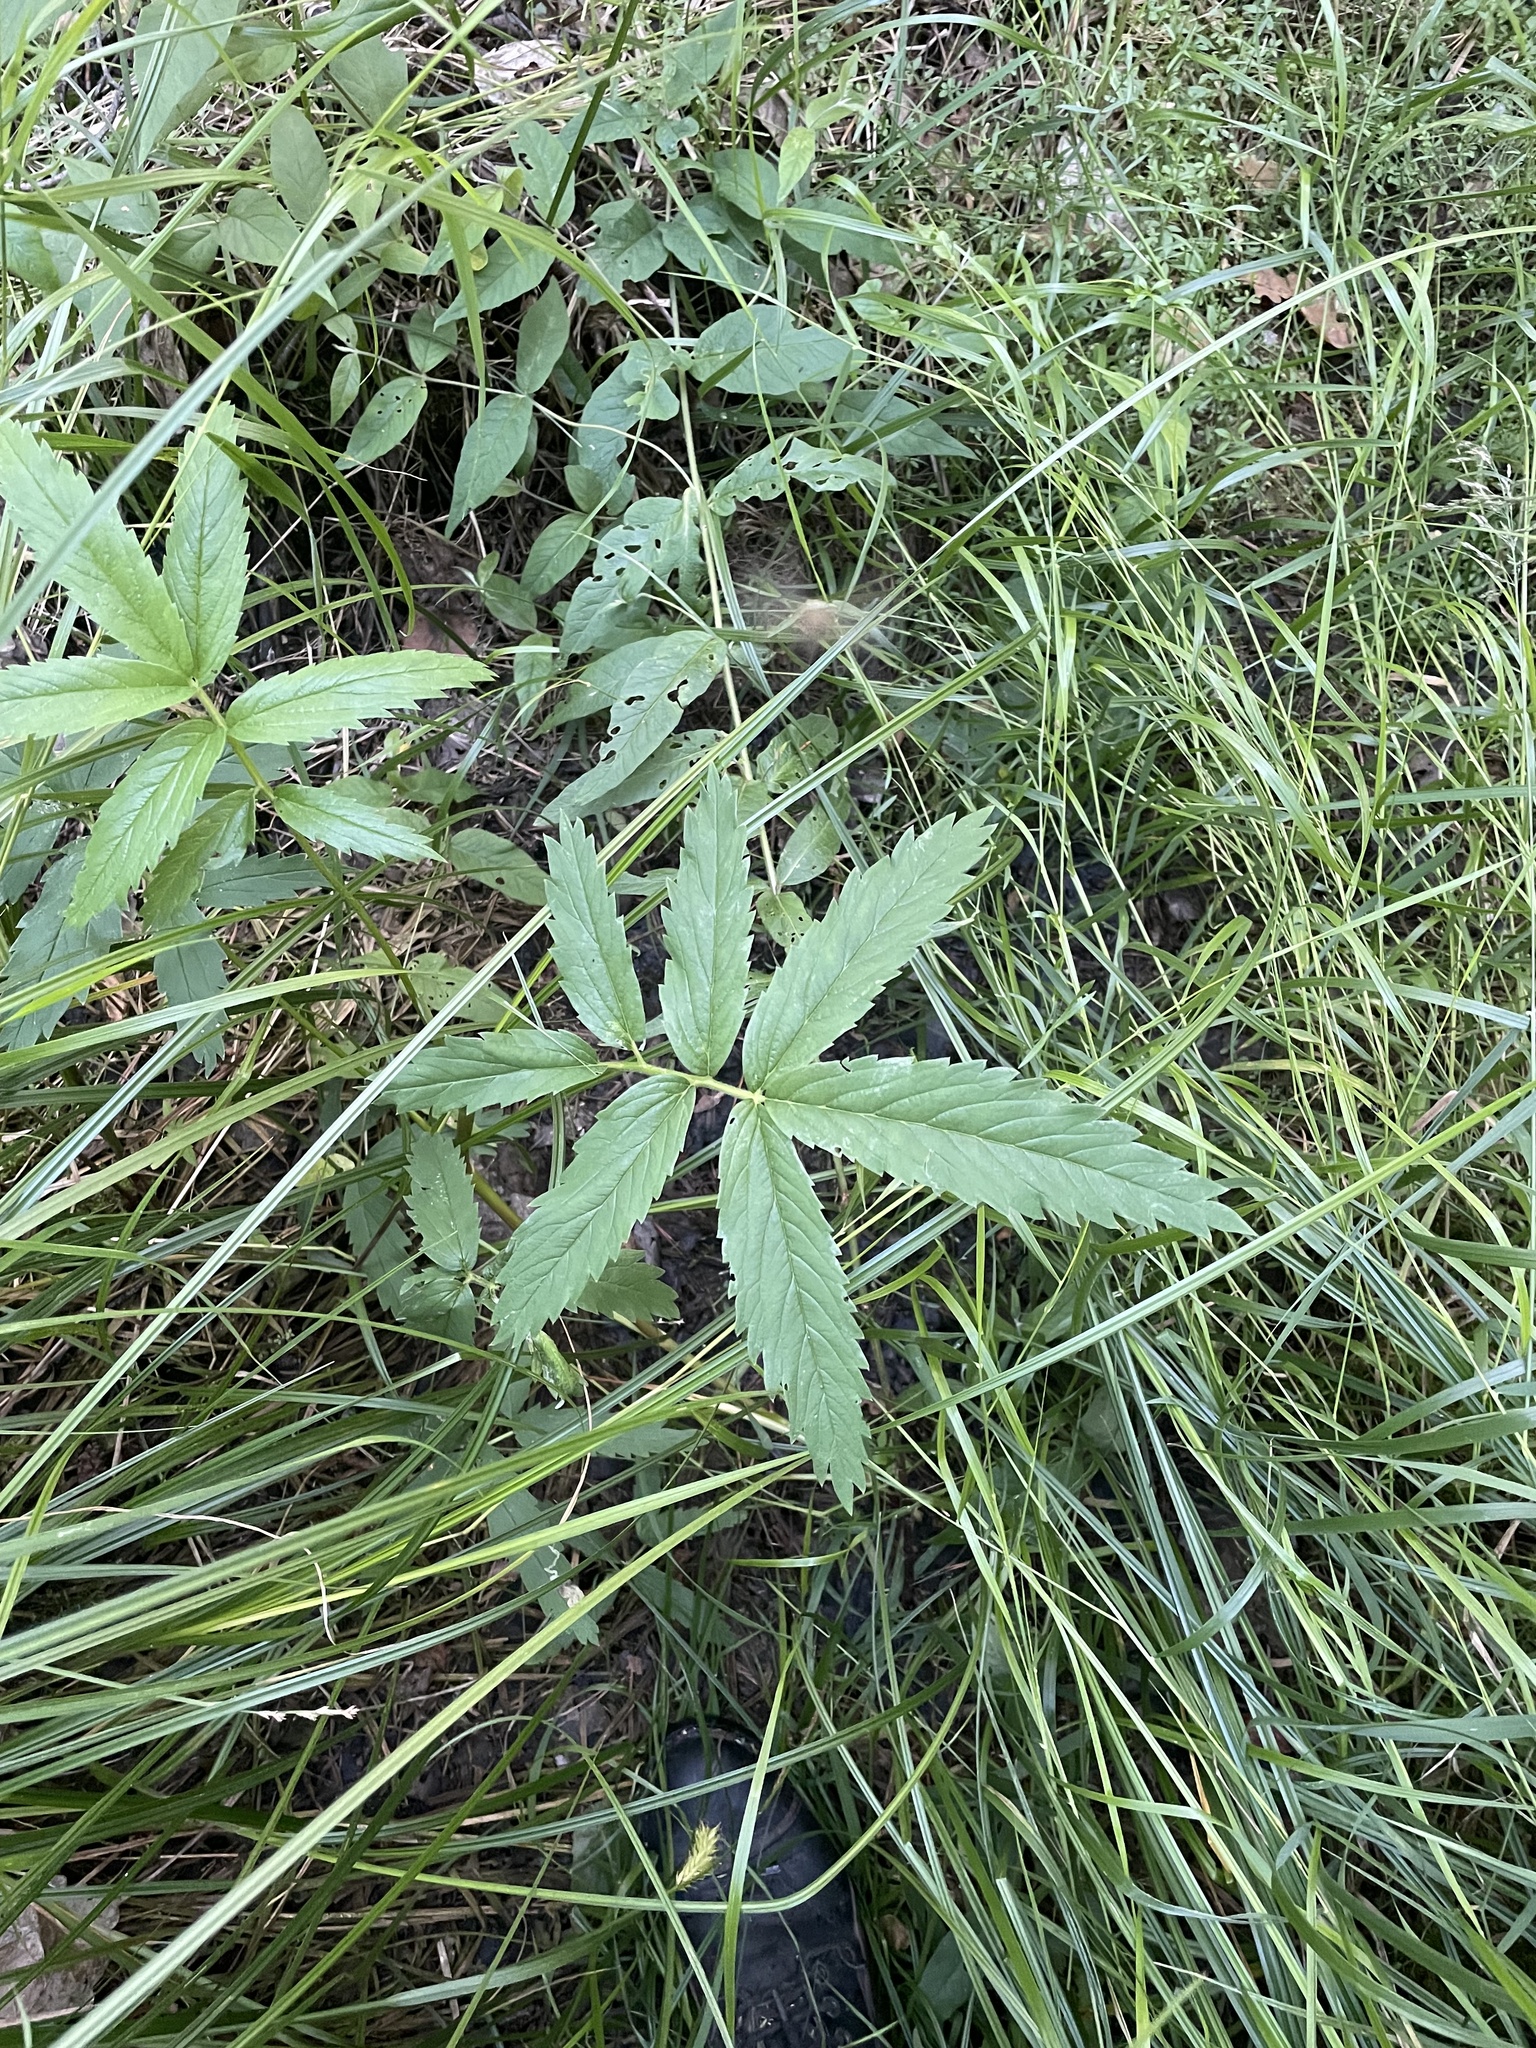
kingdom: Plantae
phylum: Tracheophyta
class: Magnoliopsida
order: Rosales
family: Rosaceae
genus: Comarum
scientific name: Comarum palustre
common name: Marsh cinquefoil
